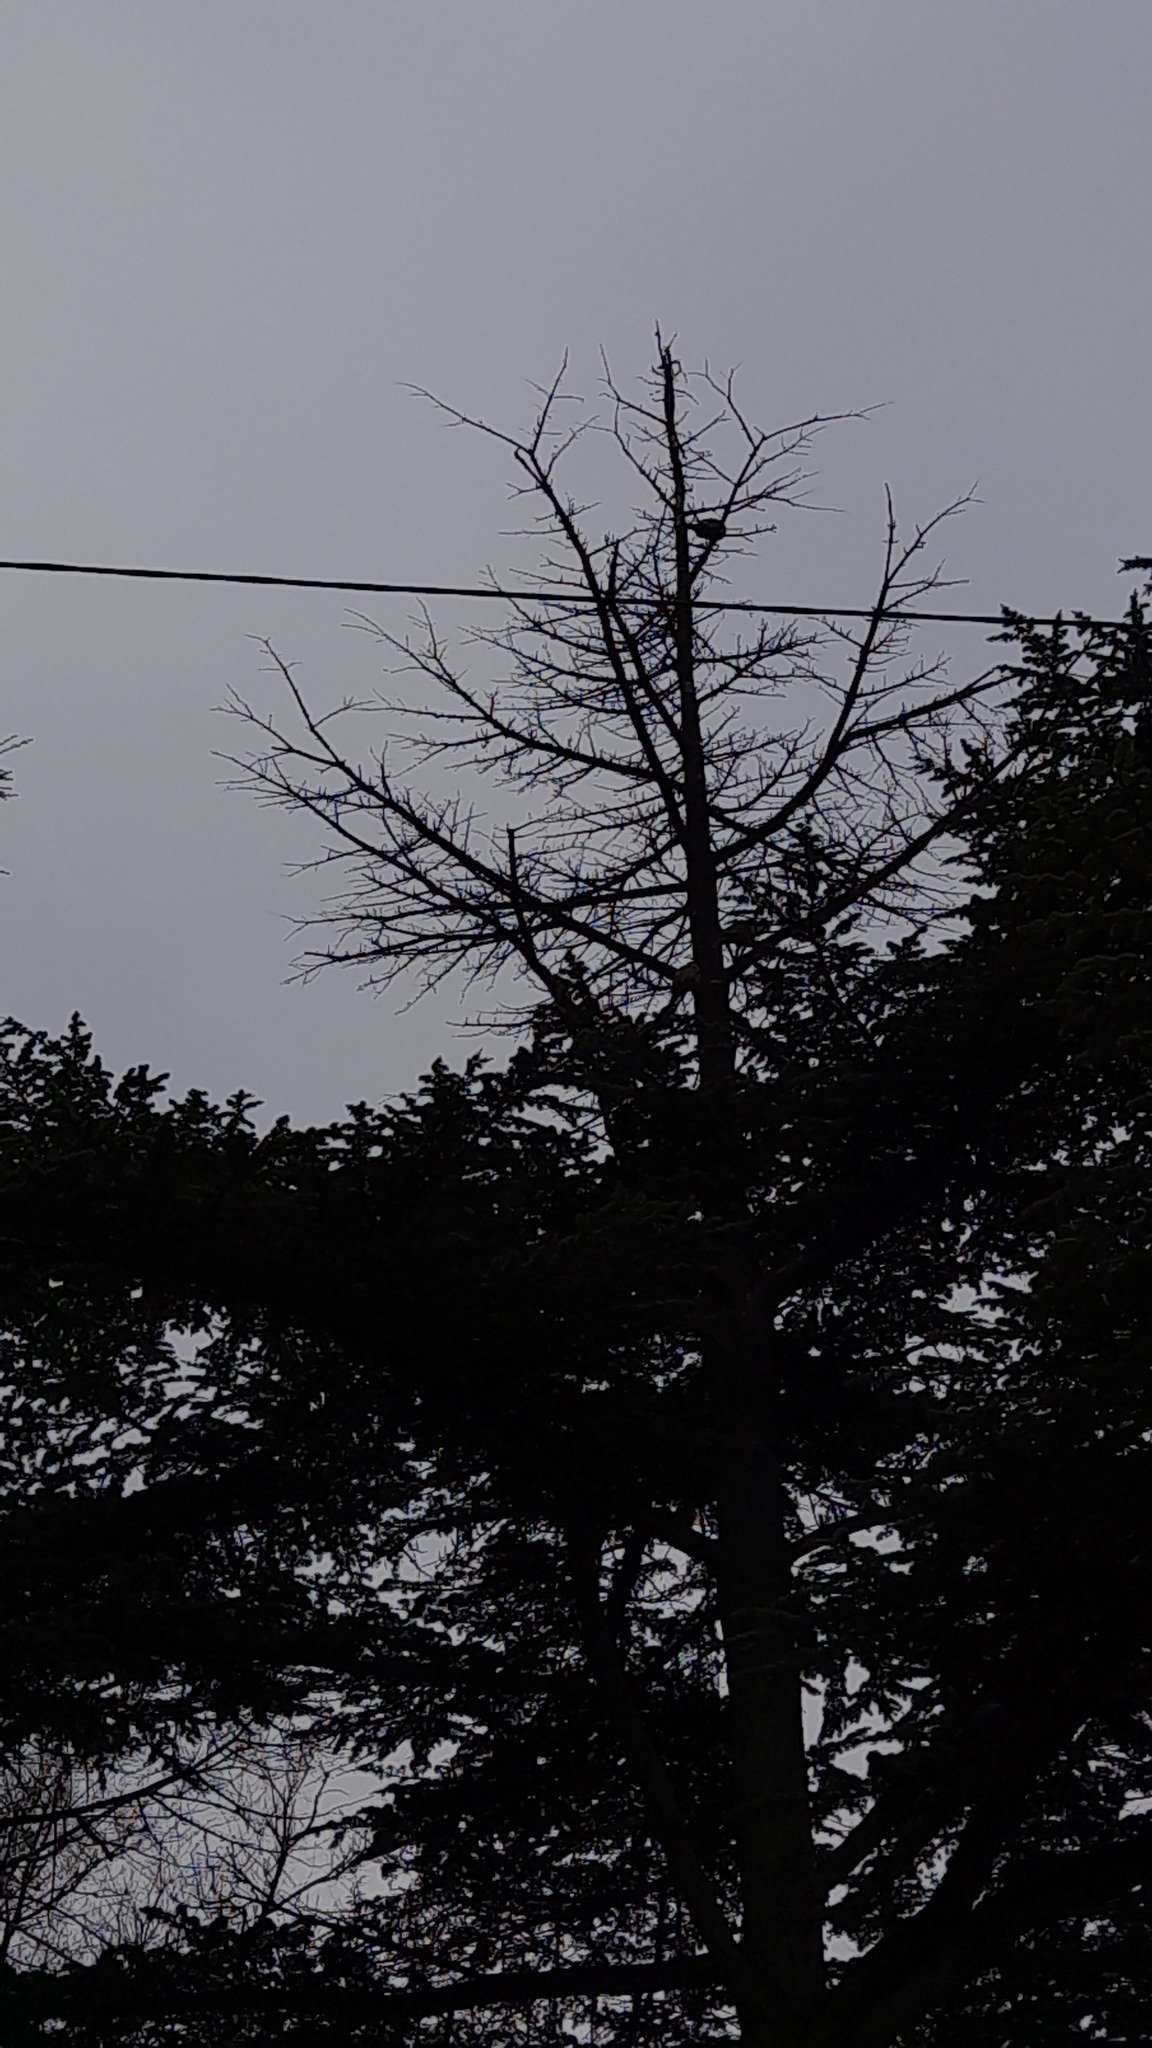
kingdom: Animalia
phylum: Chordata
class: Aves
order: Columbiformes
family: Columbidae
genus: Streptopelia
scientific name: Streptopelia decaocto
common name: Eurasian collared dove
